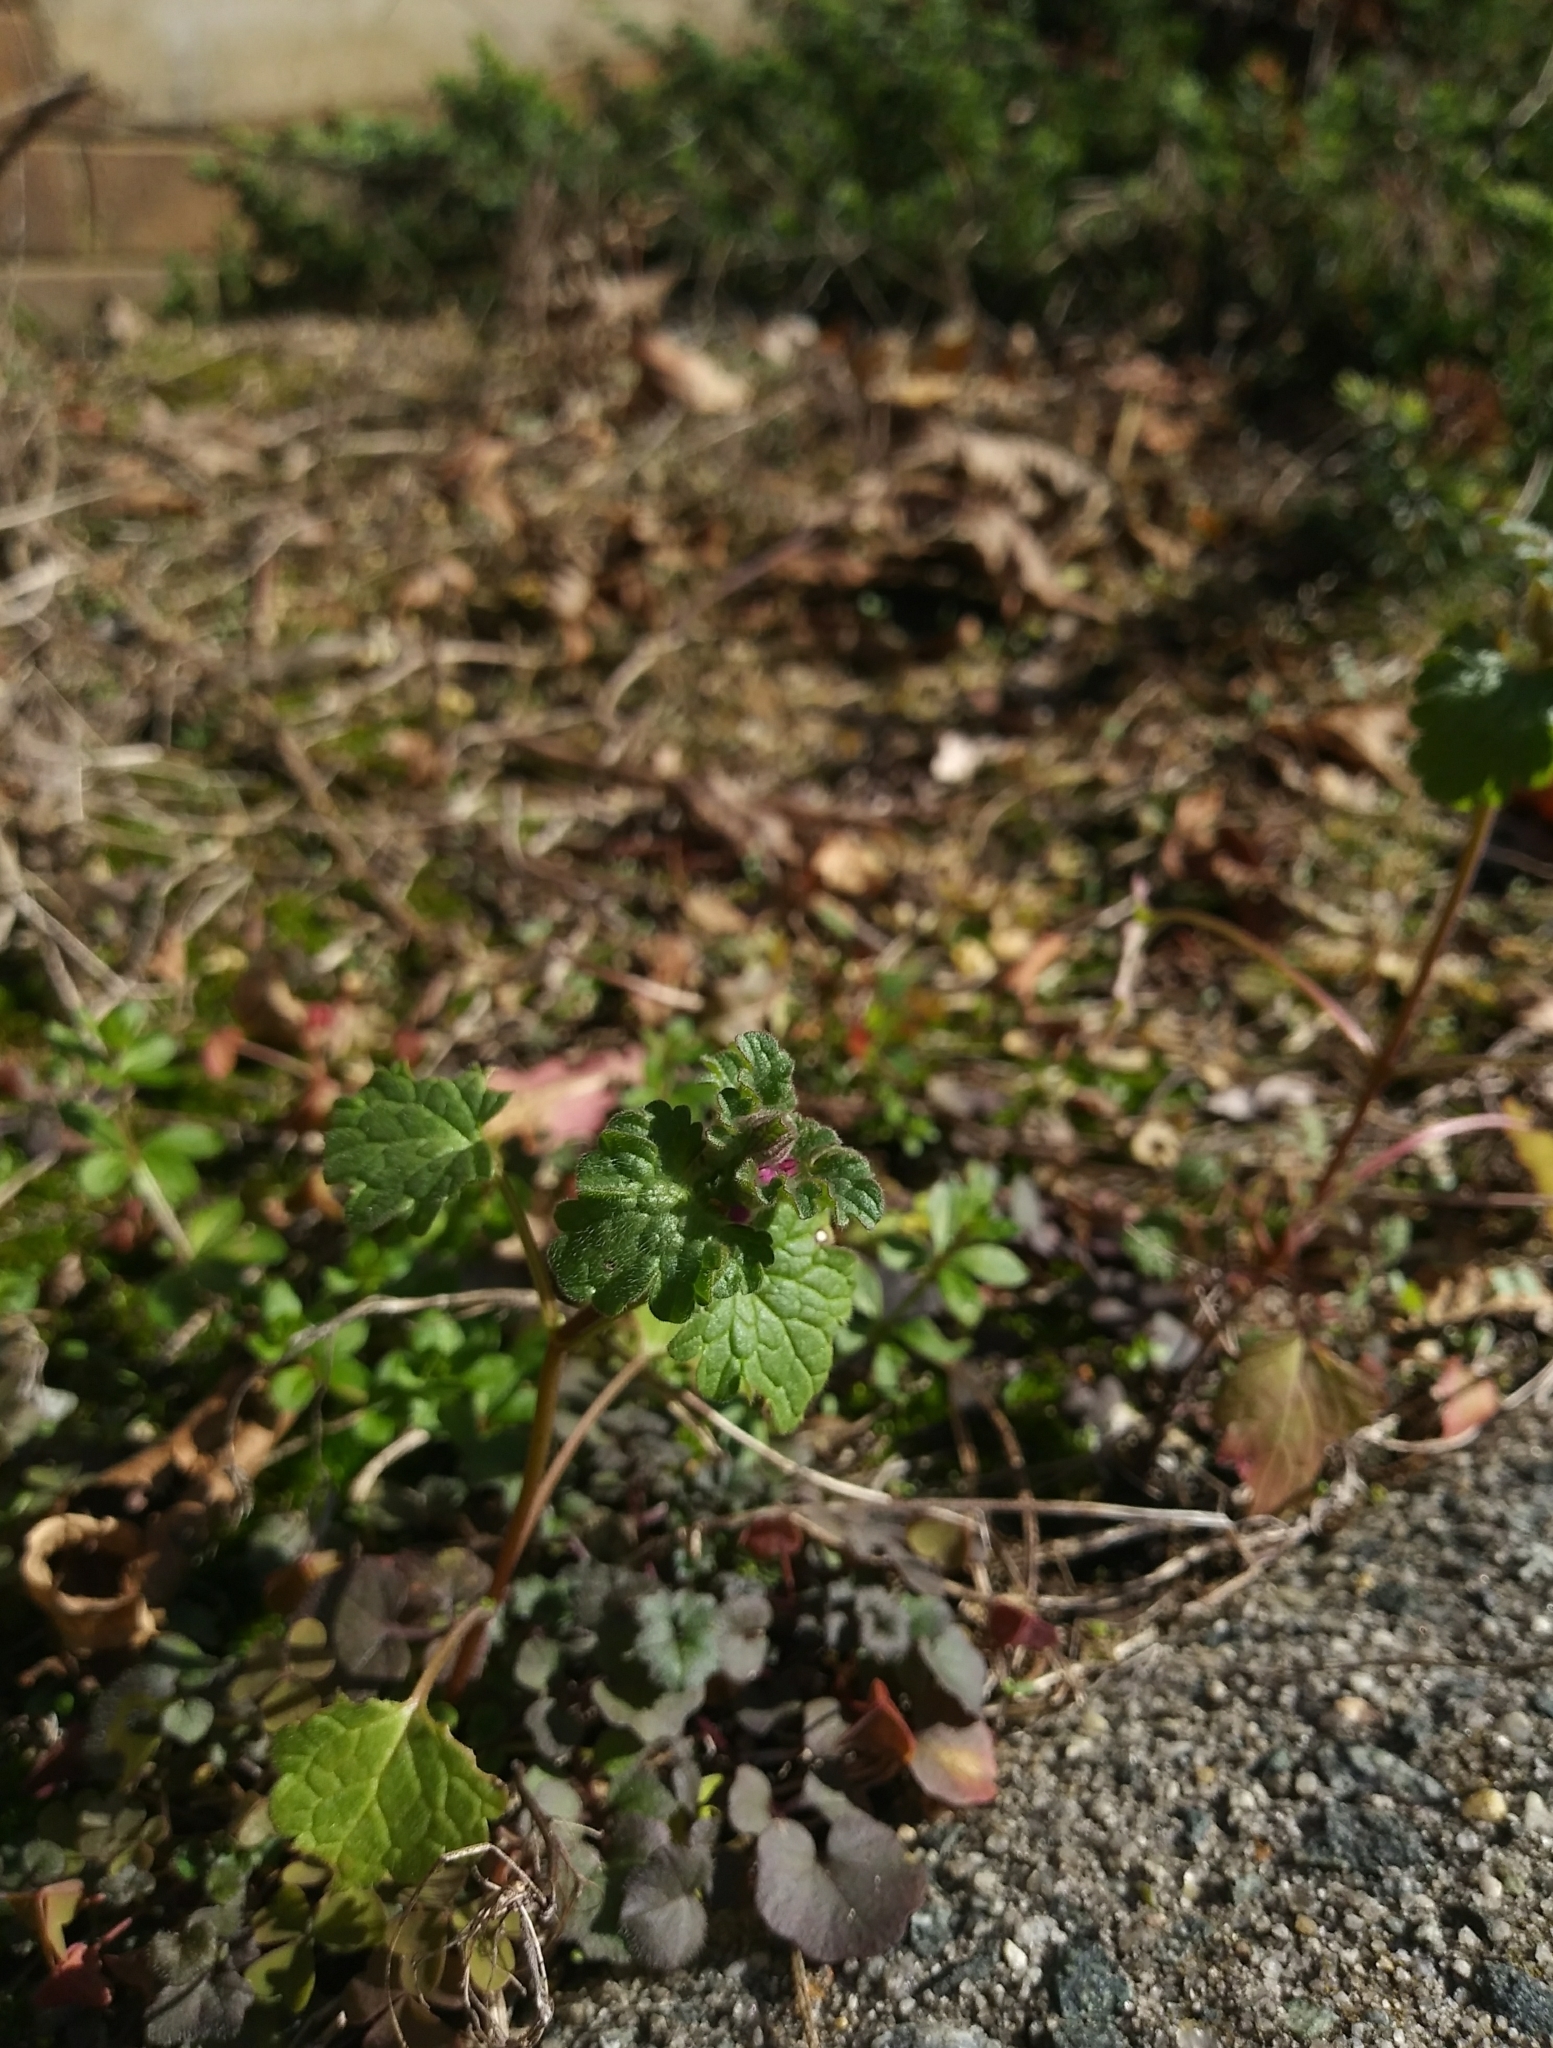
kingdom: Plantae
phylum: Tracheophyta
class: Magnoliopsida
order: Lamiales
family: Lamiaceae
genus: Lamium
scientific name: Lamium amplexicaule
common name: Henbit dead-nettle
